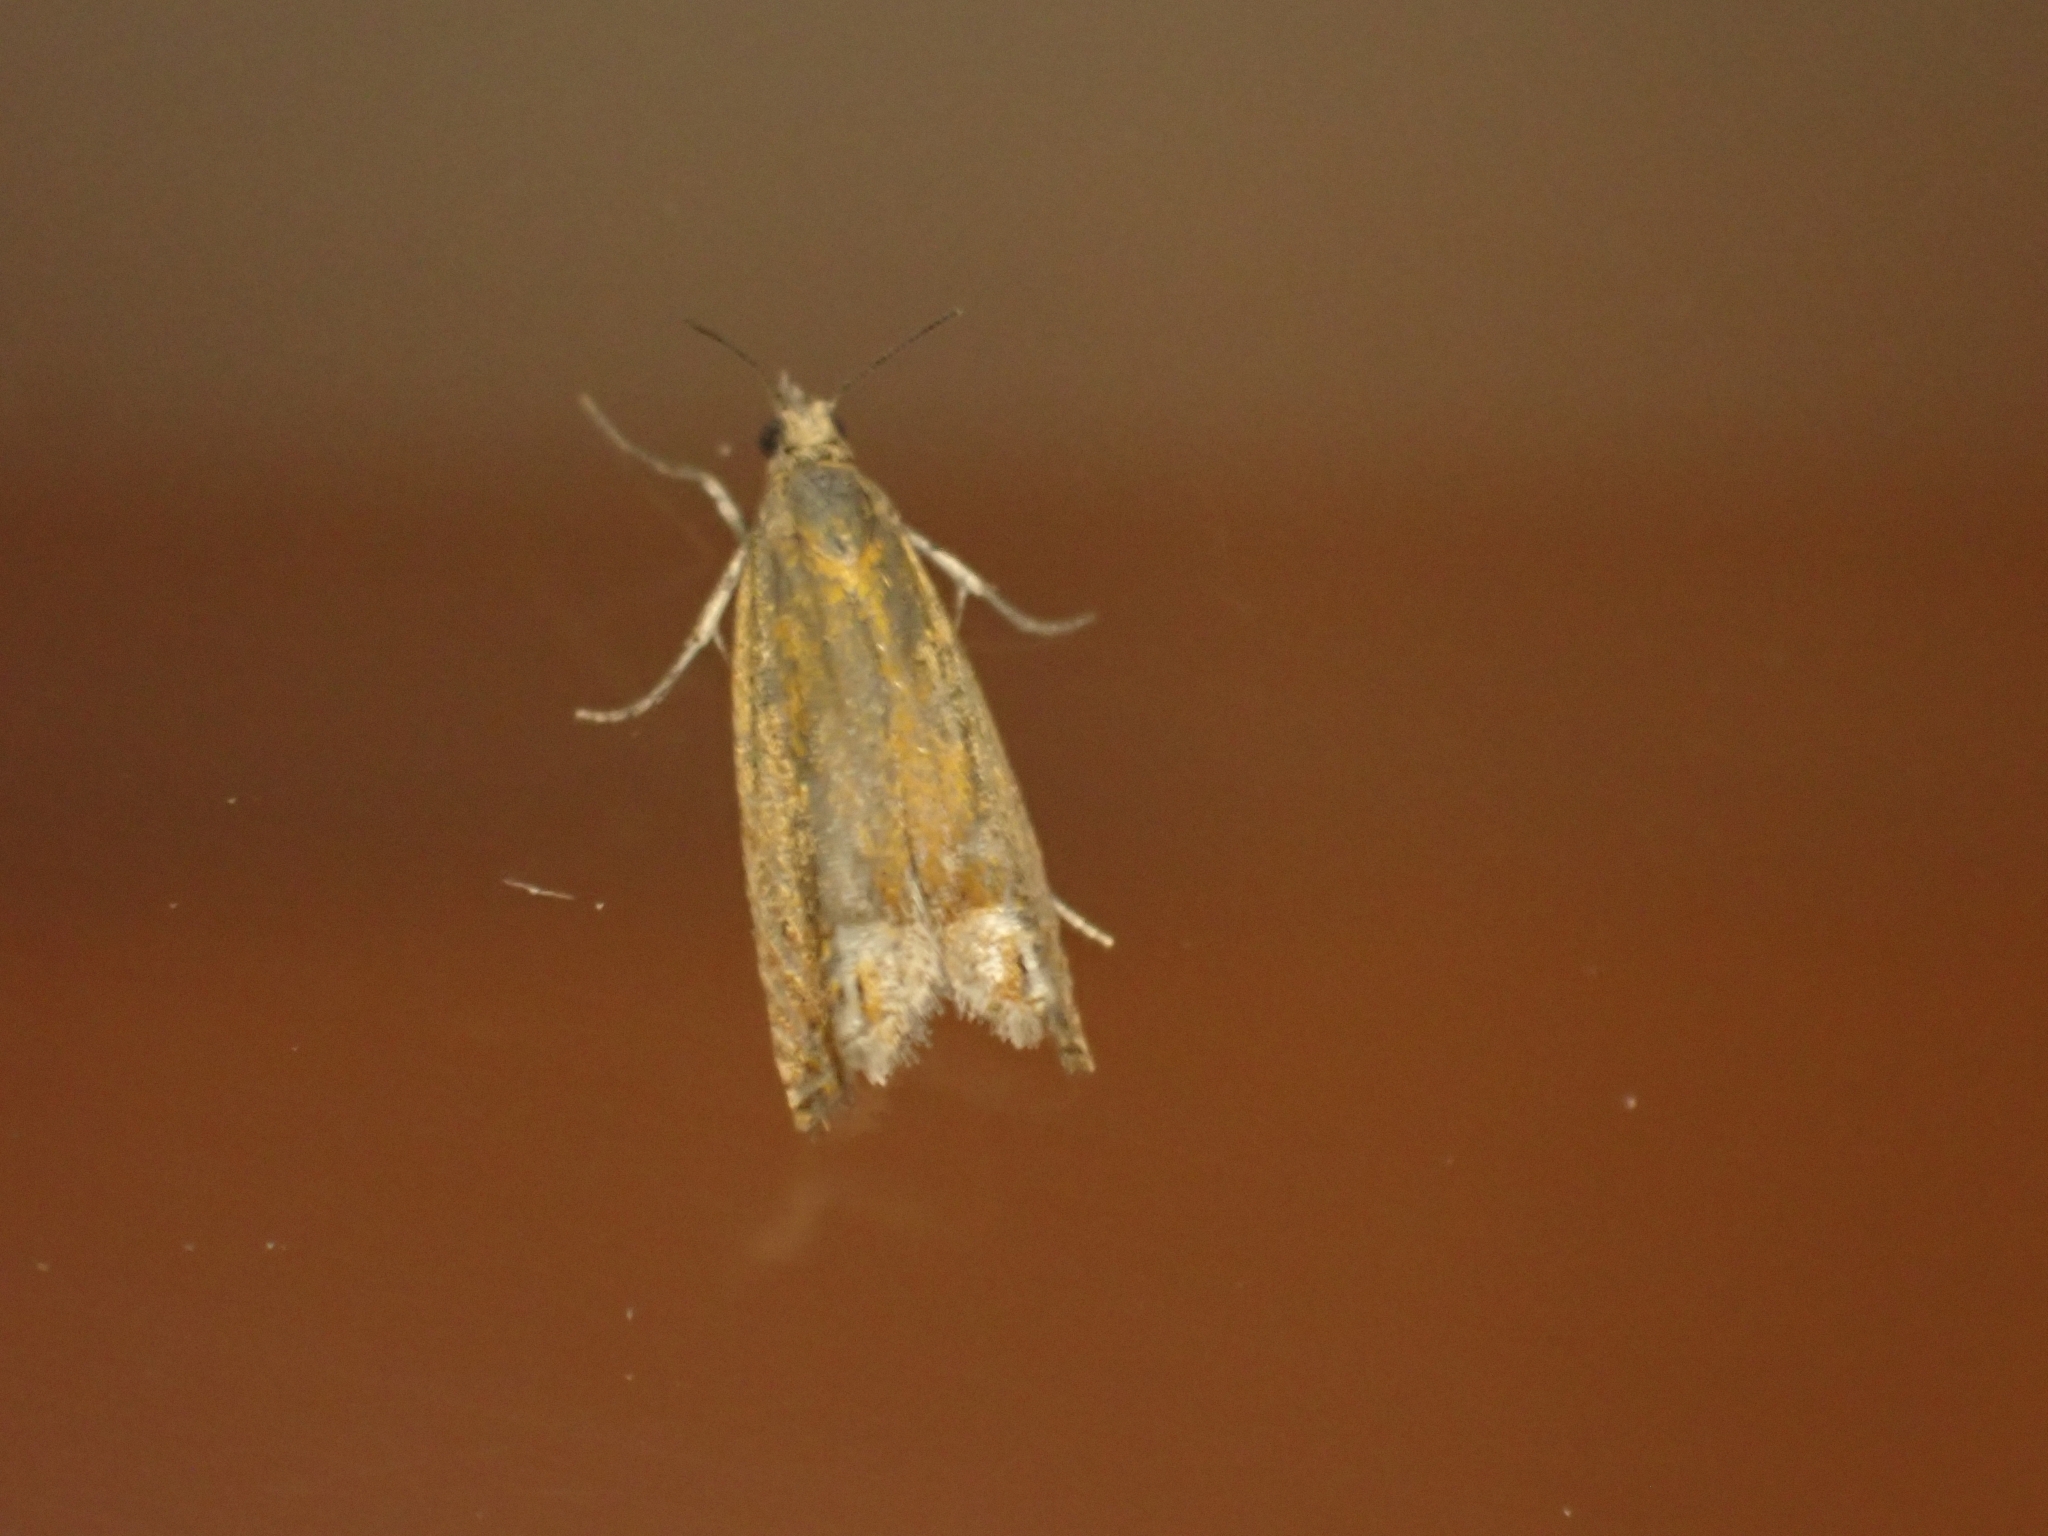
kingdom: Animalia
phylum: Arthropoda
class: Insecta
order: Lepidoptera
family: Tortricidae
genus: Lathronympha
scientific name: Lathronympha strigana
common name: Red piercer
